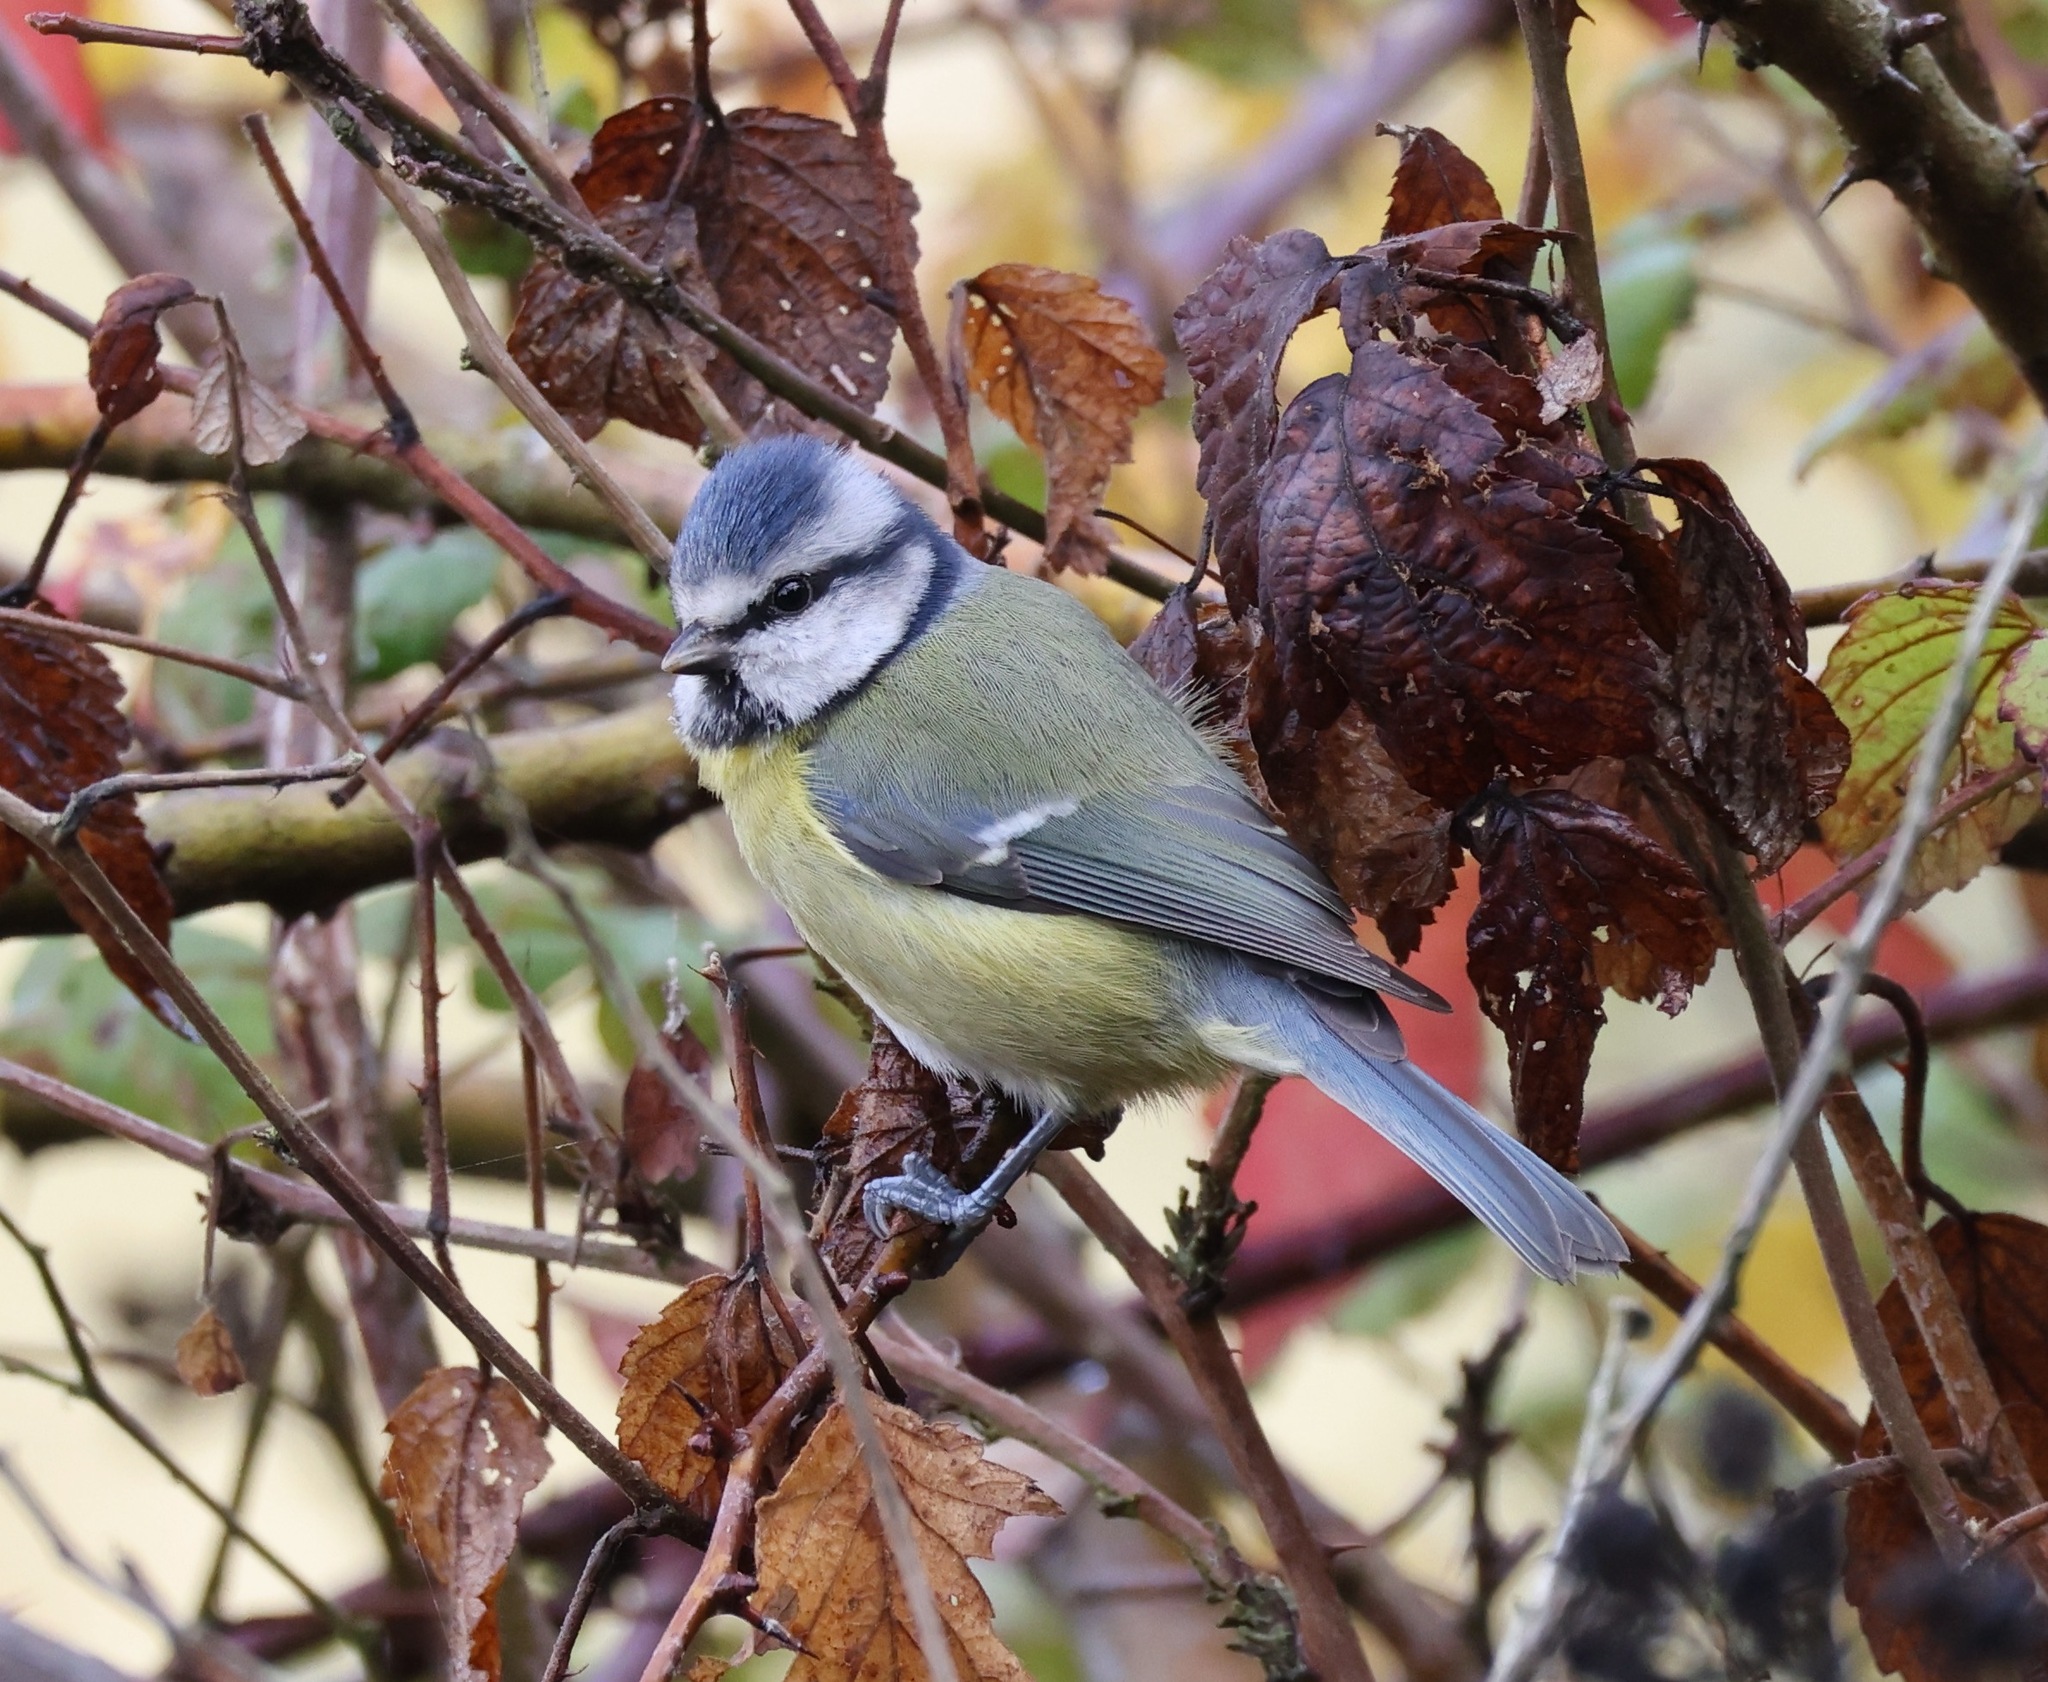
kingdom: Animalia
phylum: Chordata
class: Aves
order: Passeriformes
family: Paridae
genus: Cyanistes
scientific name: Cyanistes caeruleus
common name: Eurasian blue tit
